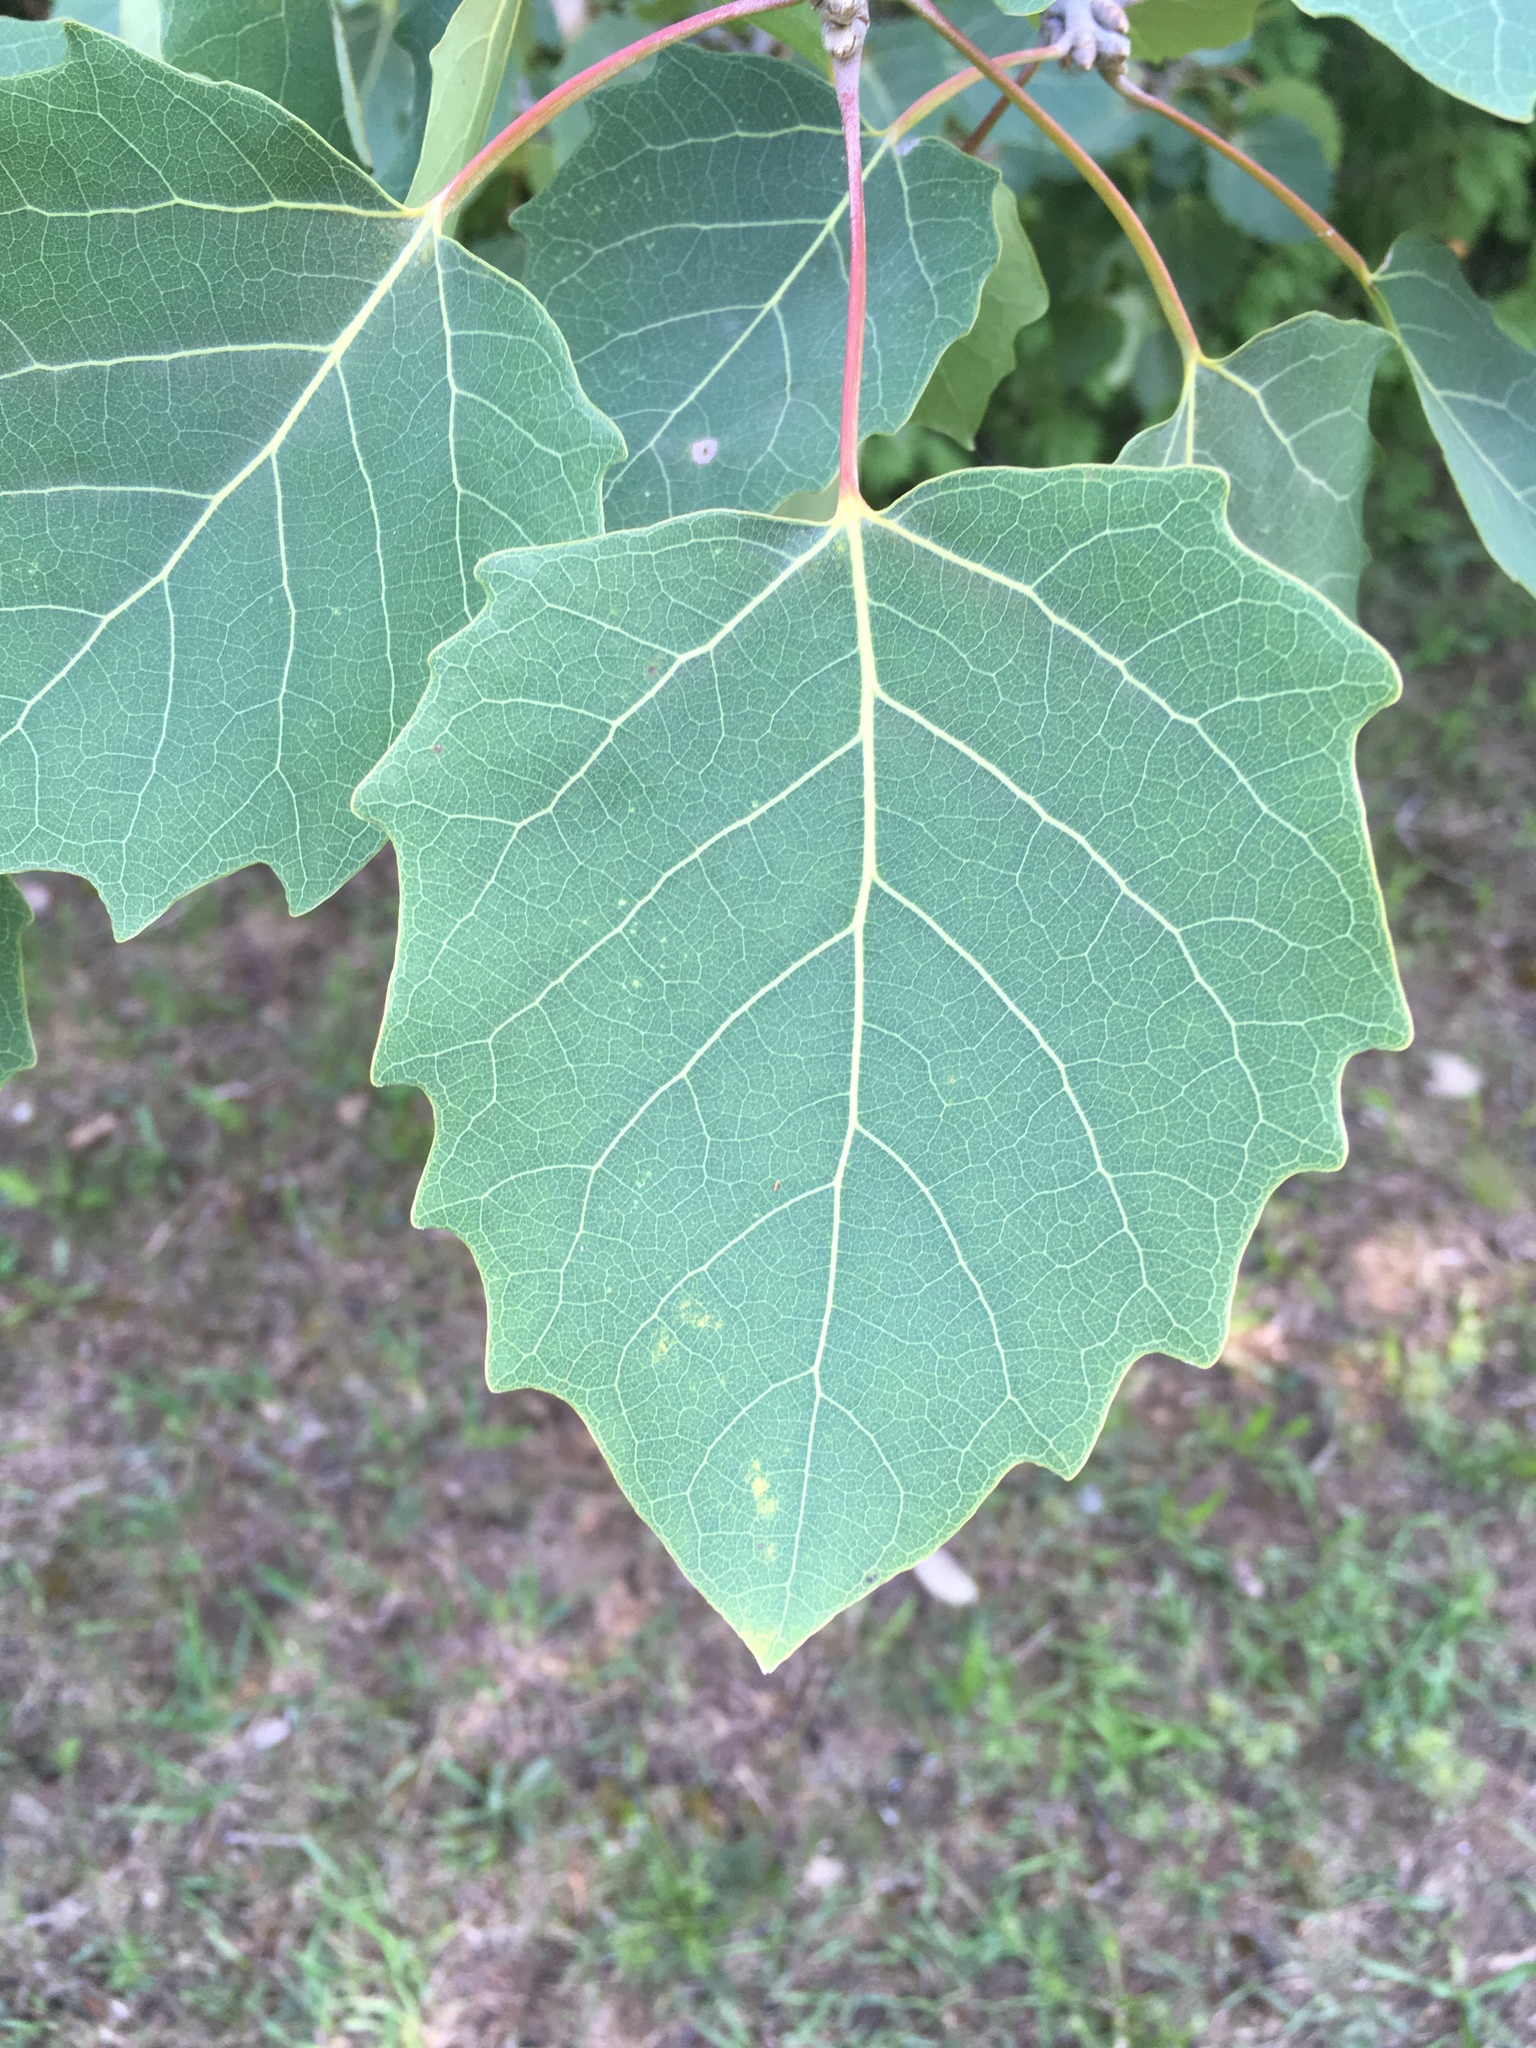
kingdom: Plantae
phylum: Tracheophyta
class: Magnoliopsida
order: Malpighiales
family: Salicaceae
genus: Populus
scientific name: Populus grandidentata
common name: Bigtooth aspen
